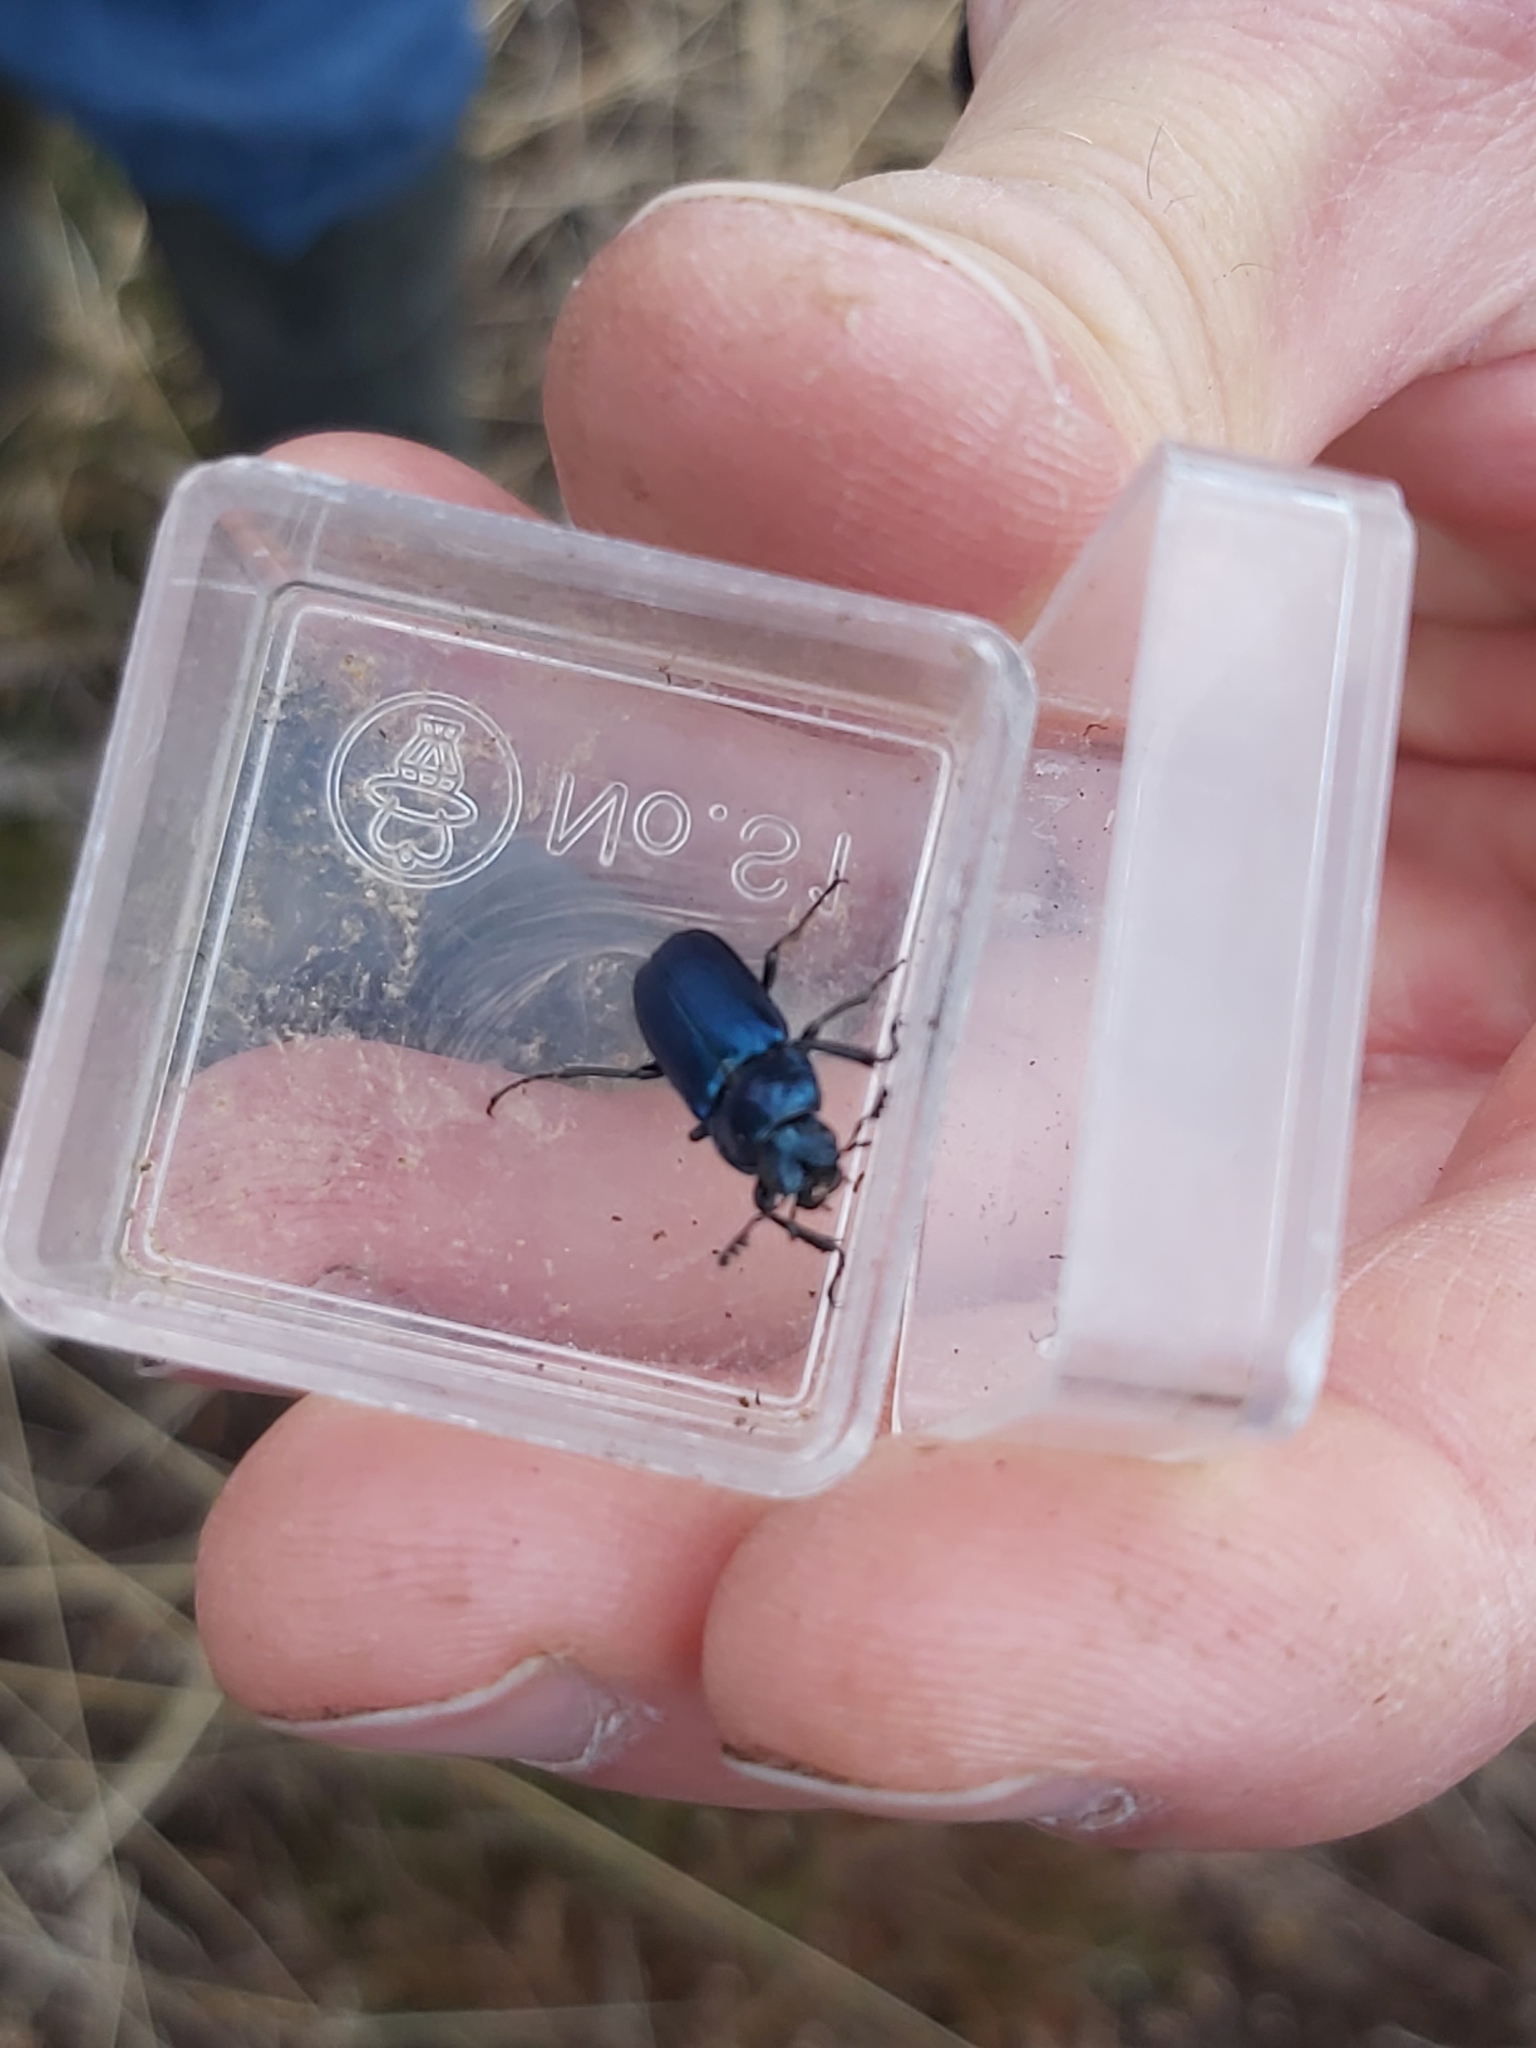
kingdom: Animalia
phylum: Arthropoda
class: Insecta
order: Coleoptera
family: Lucanidae
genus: Platycerus
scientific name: Platycerus caraboides
